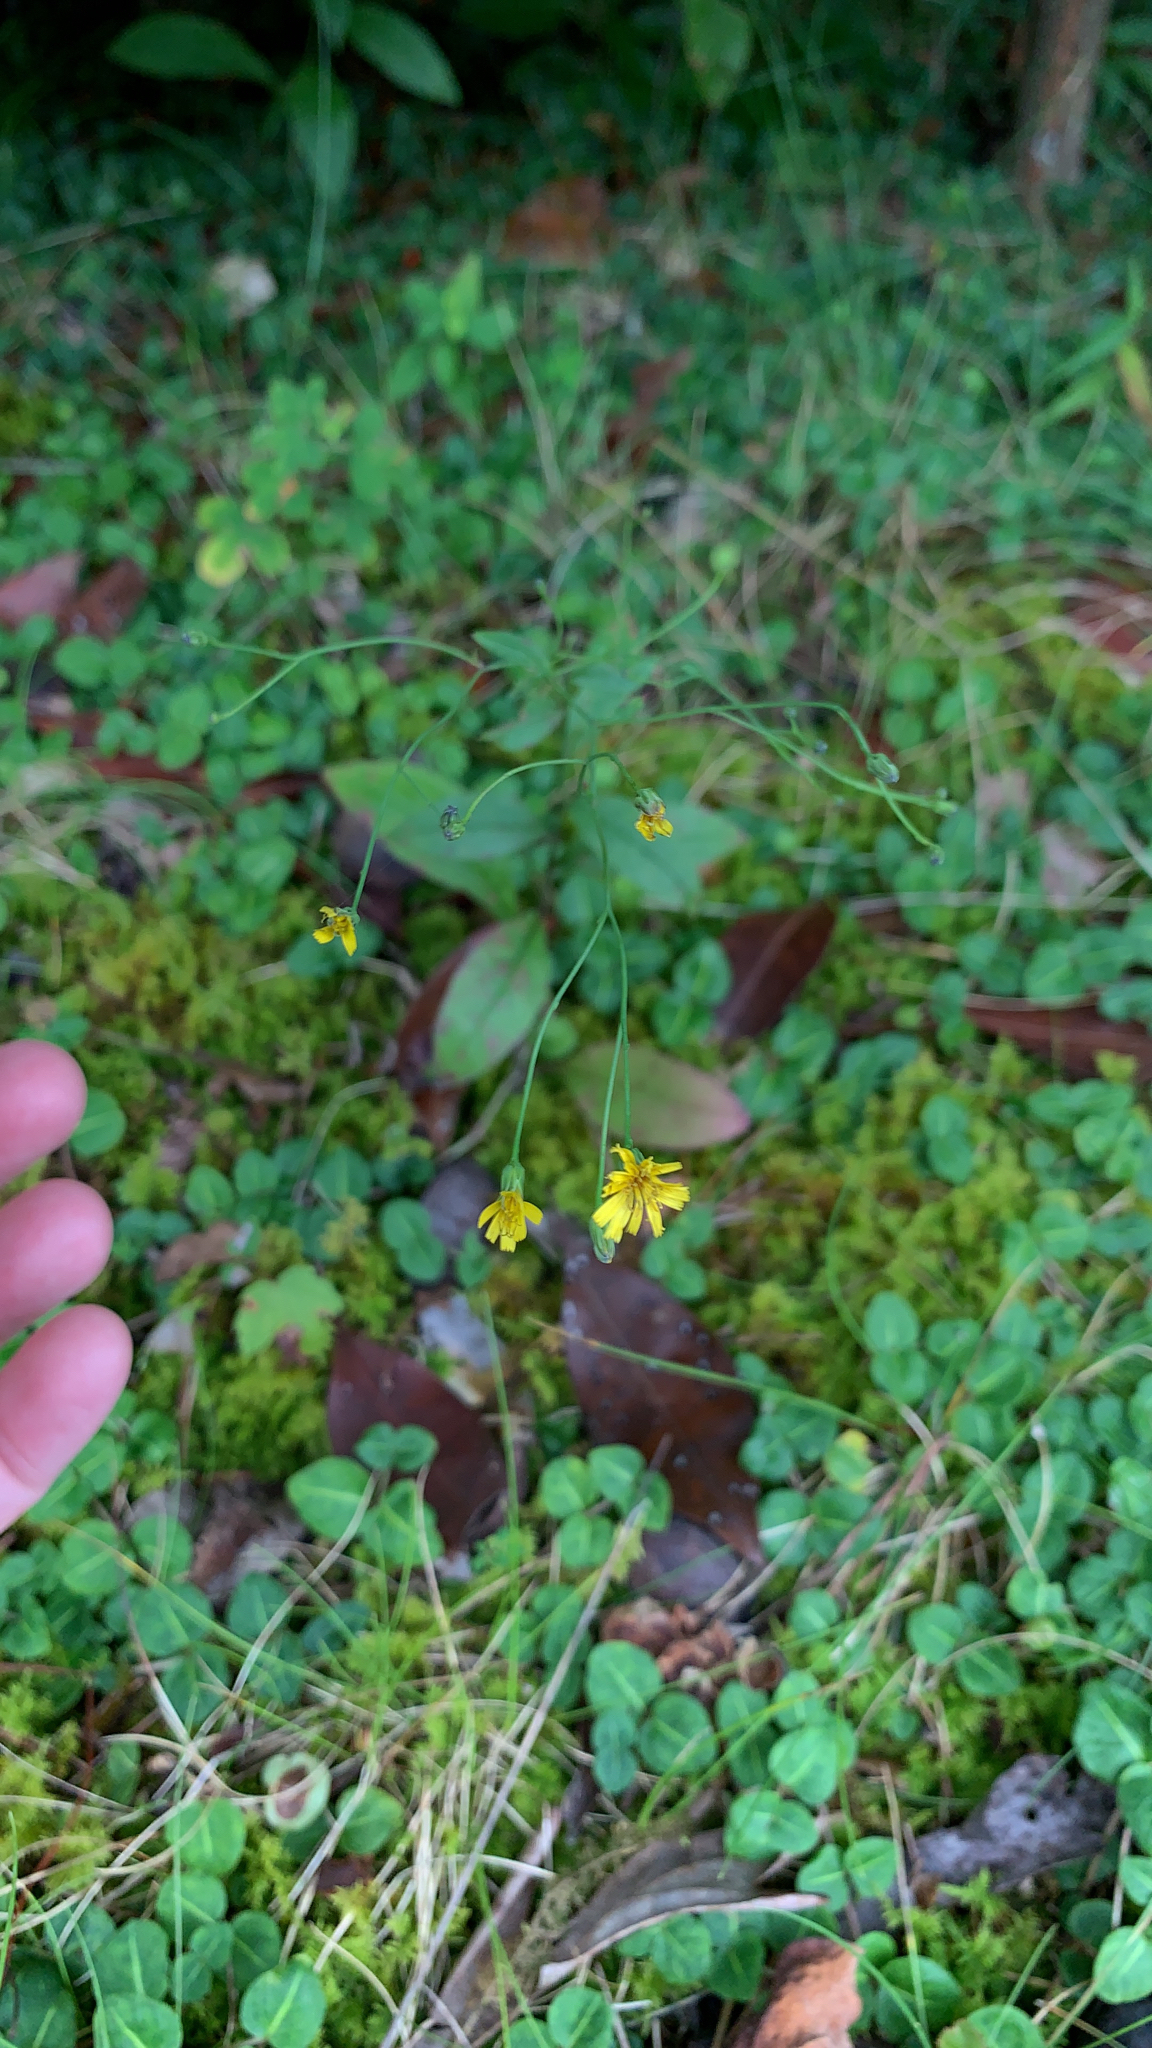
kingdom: Plantae
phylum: Tracheophyta
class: Magnoliopsida
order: Asterales
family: Asteraceae
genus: Hieracium
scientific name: Hieracium paniculatum
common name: Allegheny hawkweed
